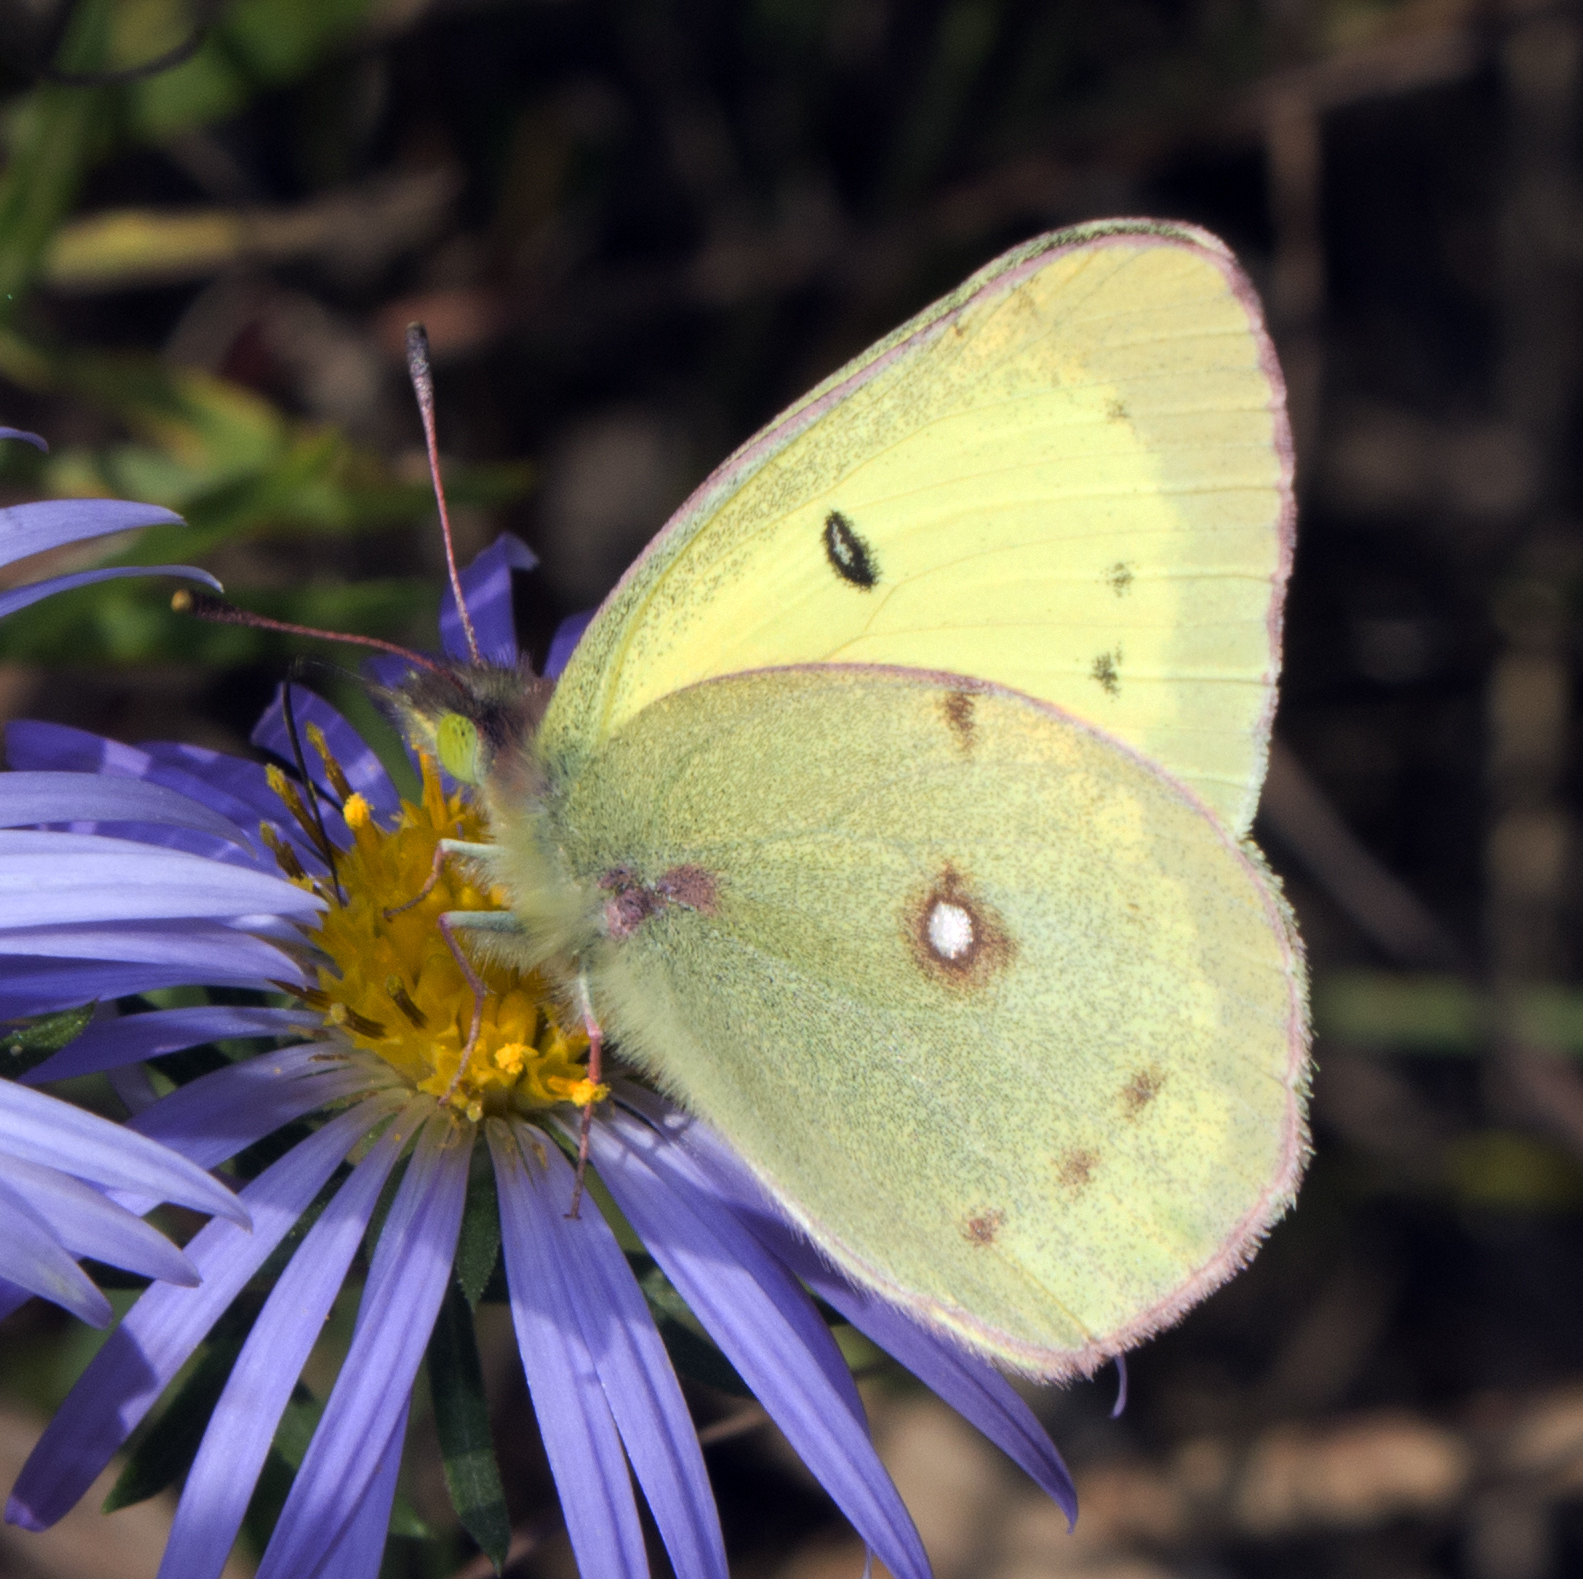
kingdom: Animalia
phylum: Arthropoda
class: Insecta
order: Lepidoptera
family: Pieridae
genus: Colias
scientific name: Colias philodice
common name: Clouded sulphur
